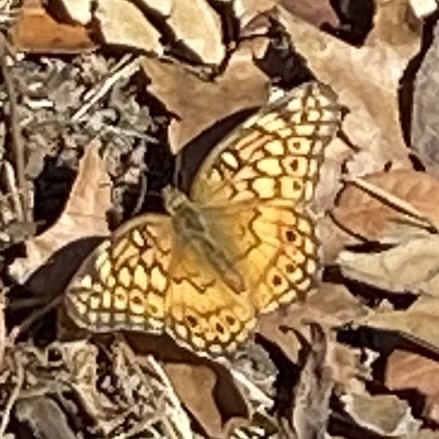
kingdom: Animalia
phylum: Arthropoda
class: Insecta
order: Lepidoptera
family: Nymphalidae
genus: Euptoieta
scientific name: Euptoieta claudia
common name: Variegated fritillary
